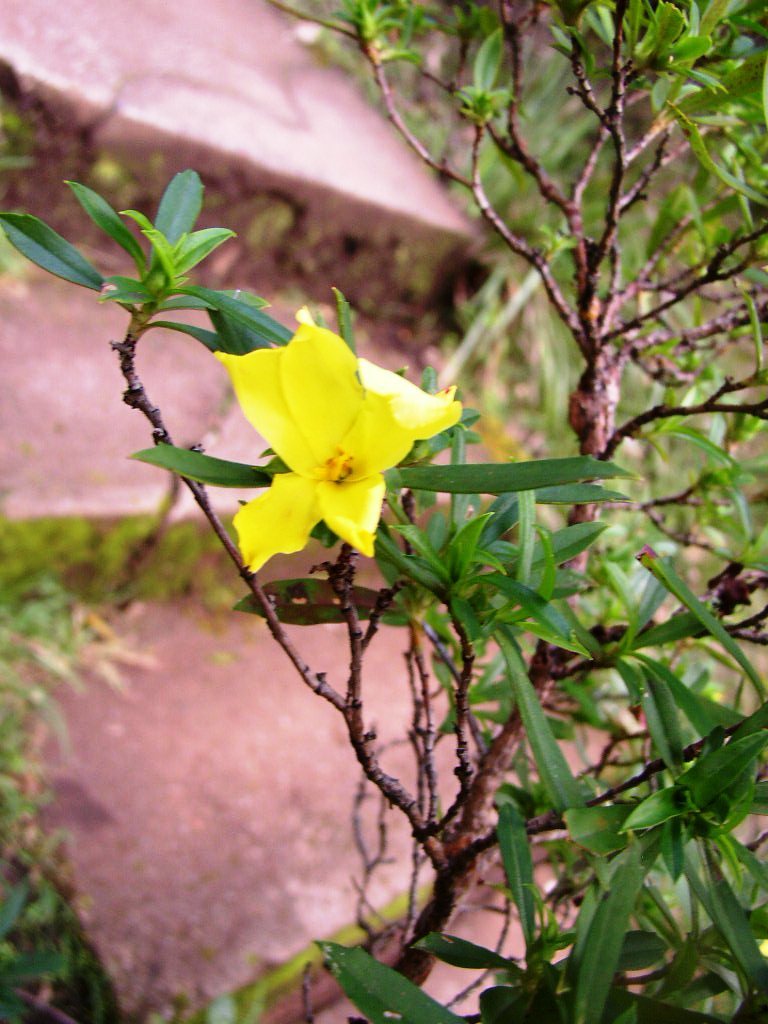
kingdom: Plantae
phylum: Tracheophyta
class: Magnoliopsida
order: Dilleniales
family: Dilleniaceae
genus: Hibbertia
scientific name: Hibbertia cuneiformis
